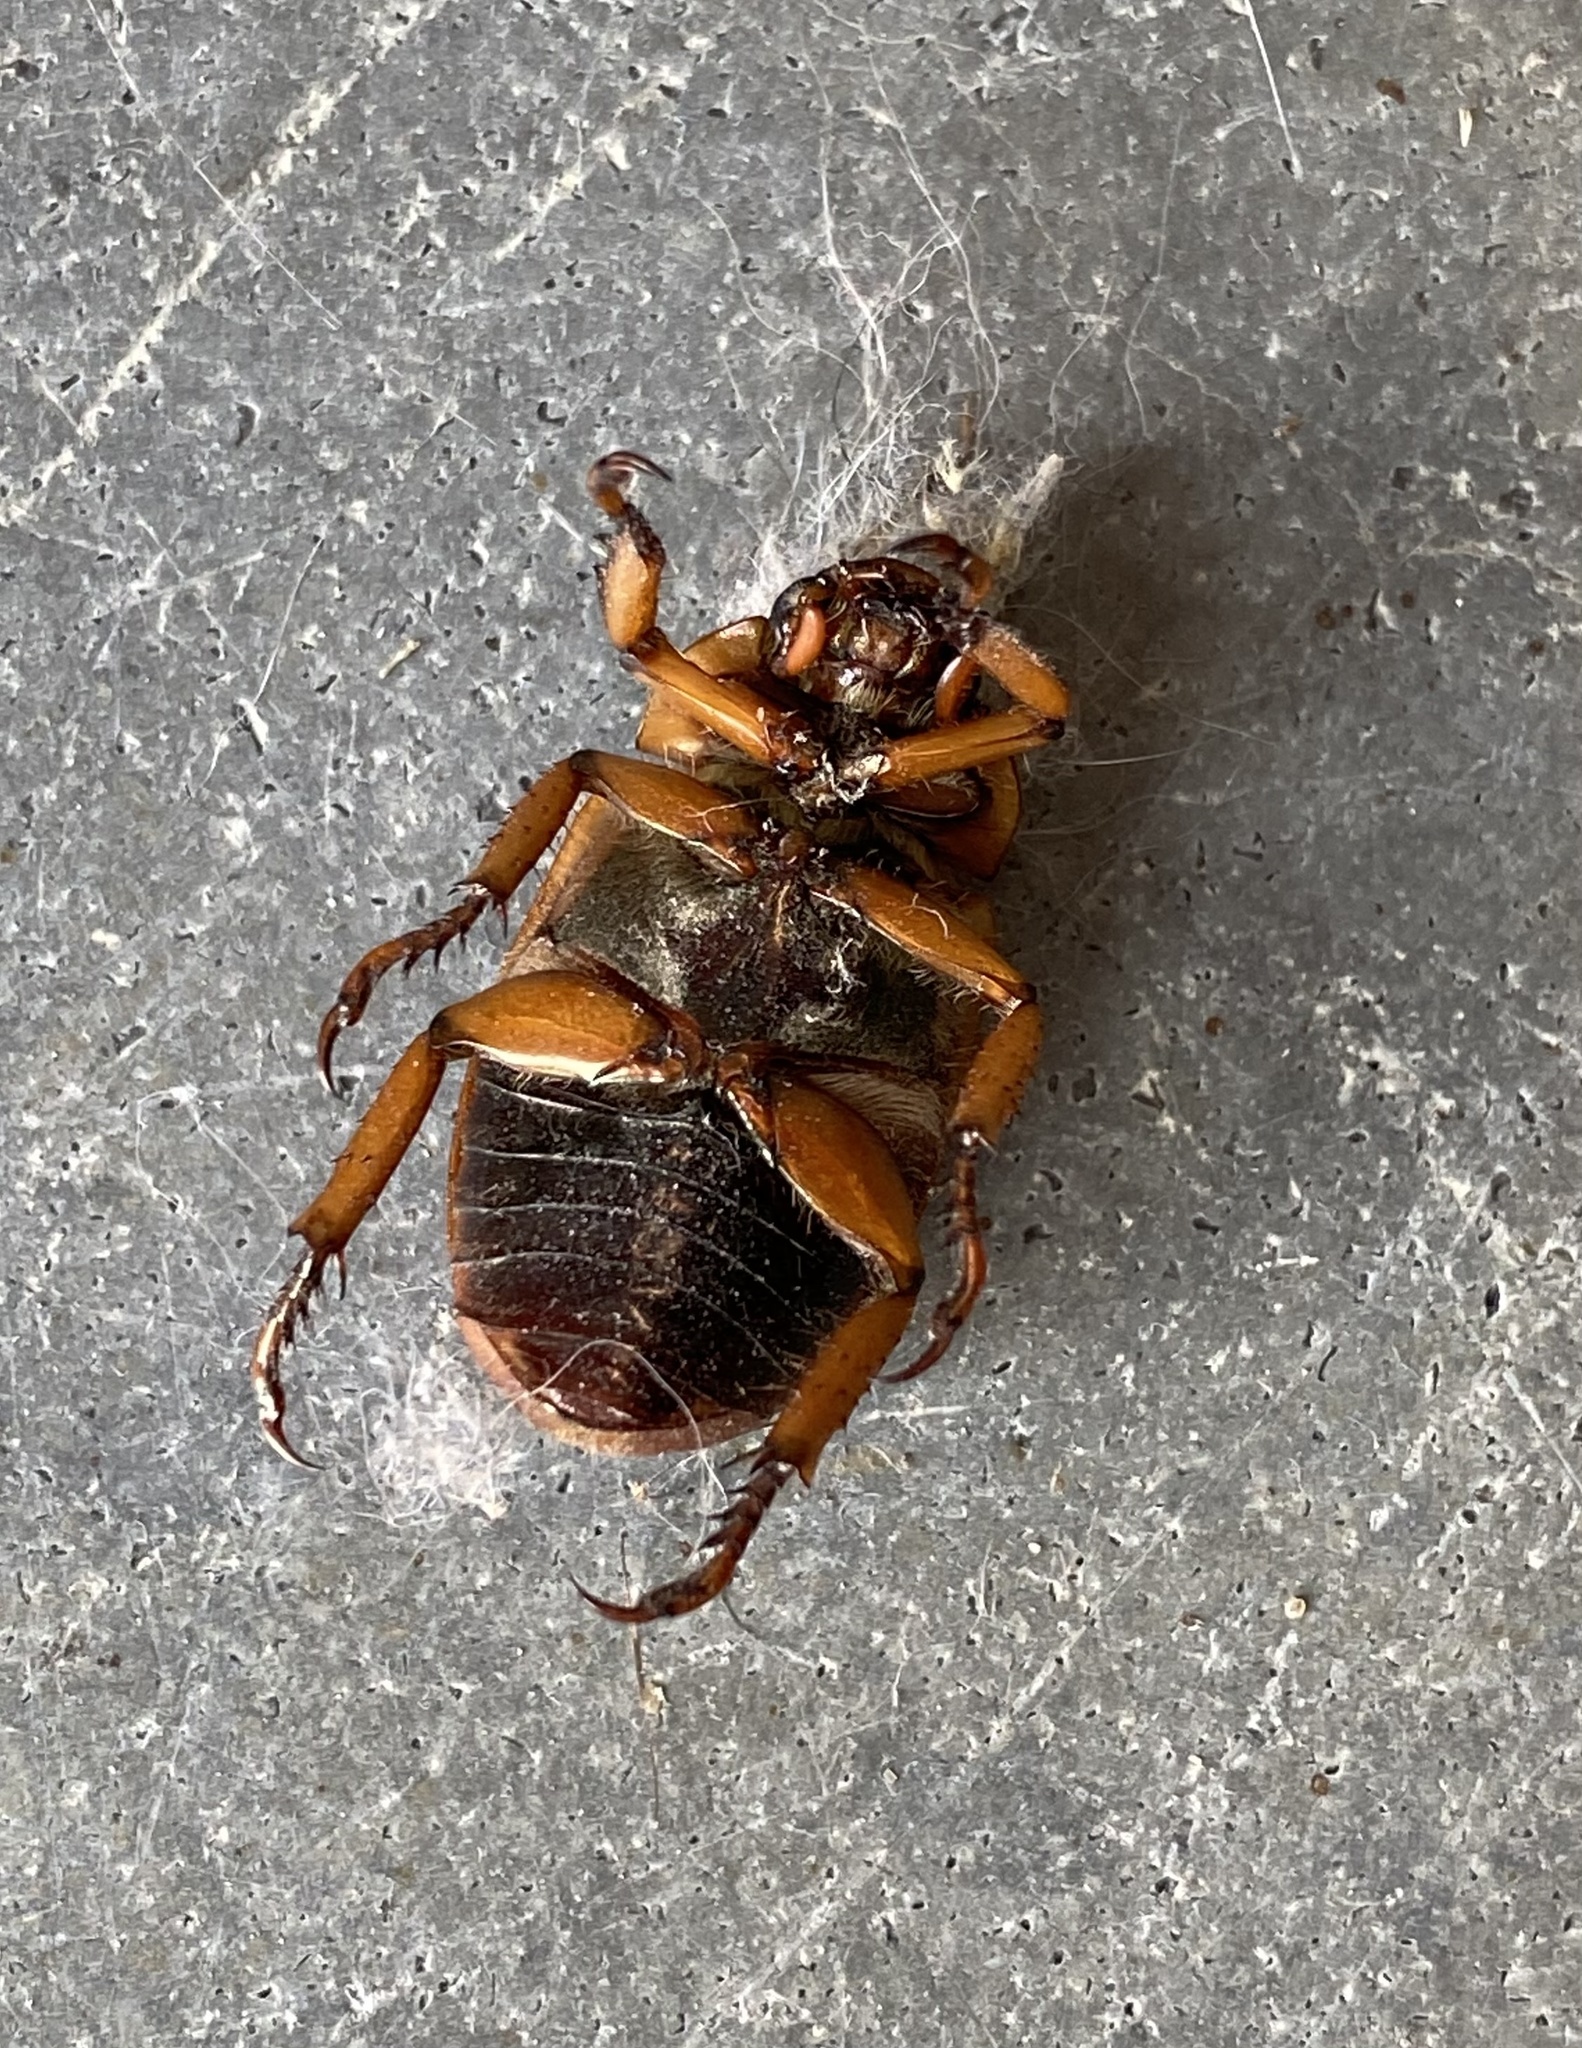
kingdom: Animalia
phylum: Arthropoda
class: Insecta
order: Coleoptera
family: Scarabaeidae
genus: Pelidnota
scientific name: Pelidnota punctata
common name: Grapevine beetle
